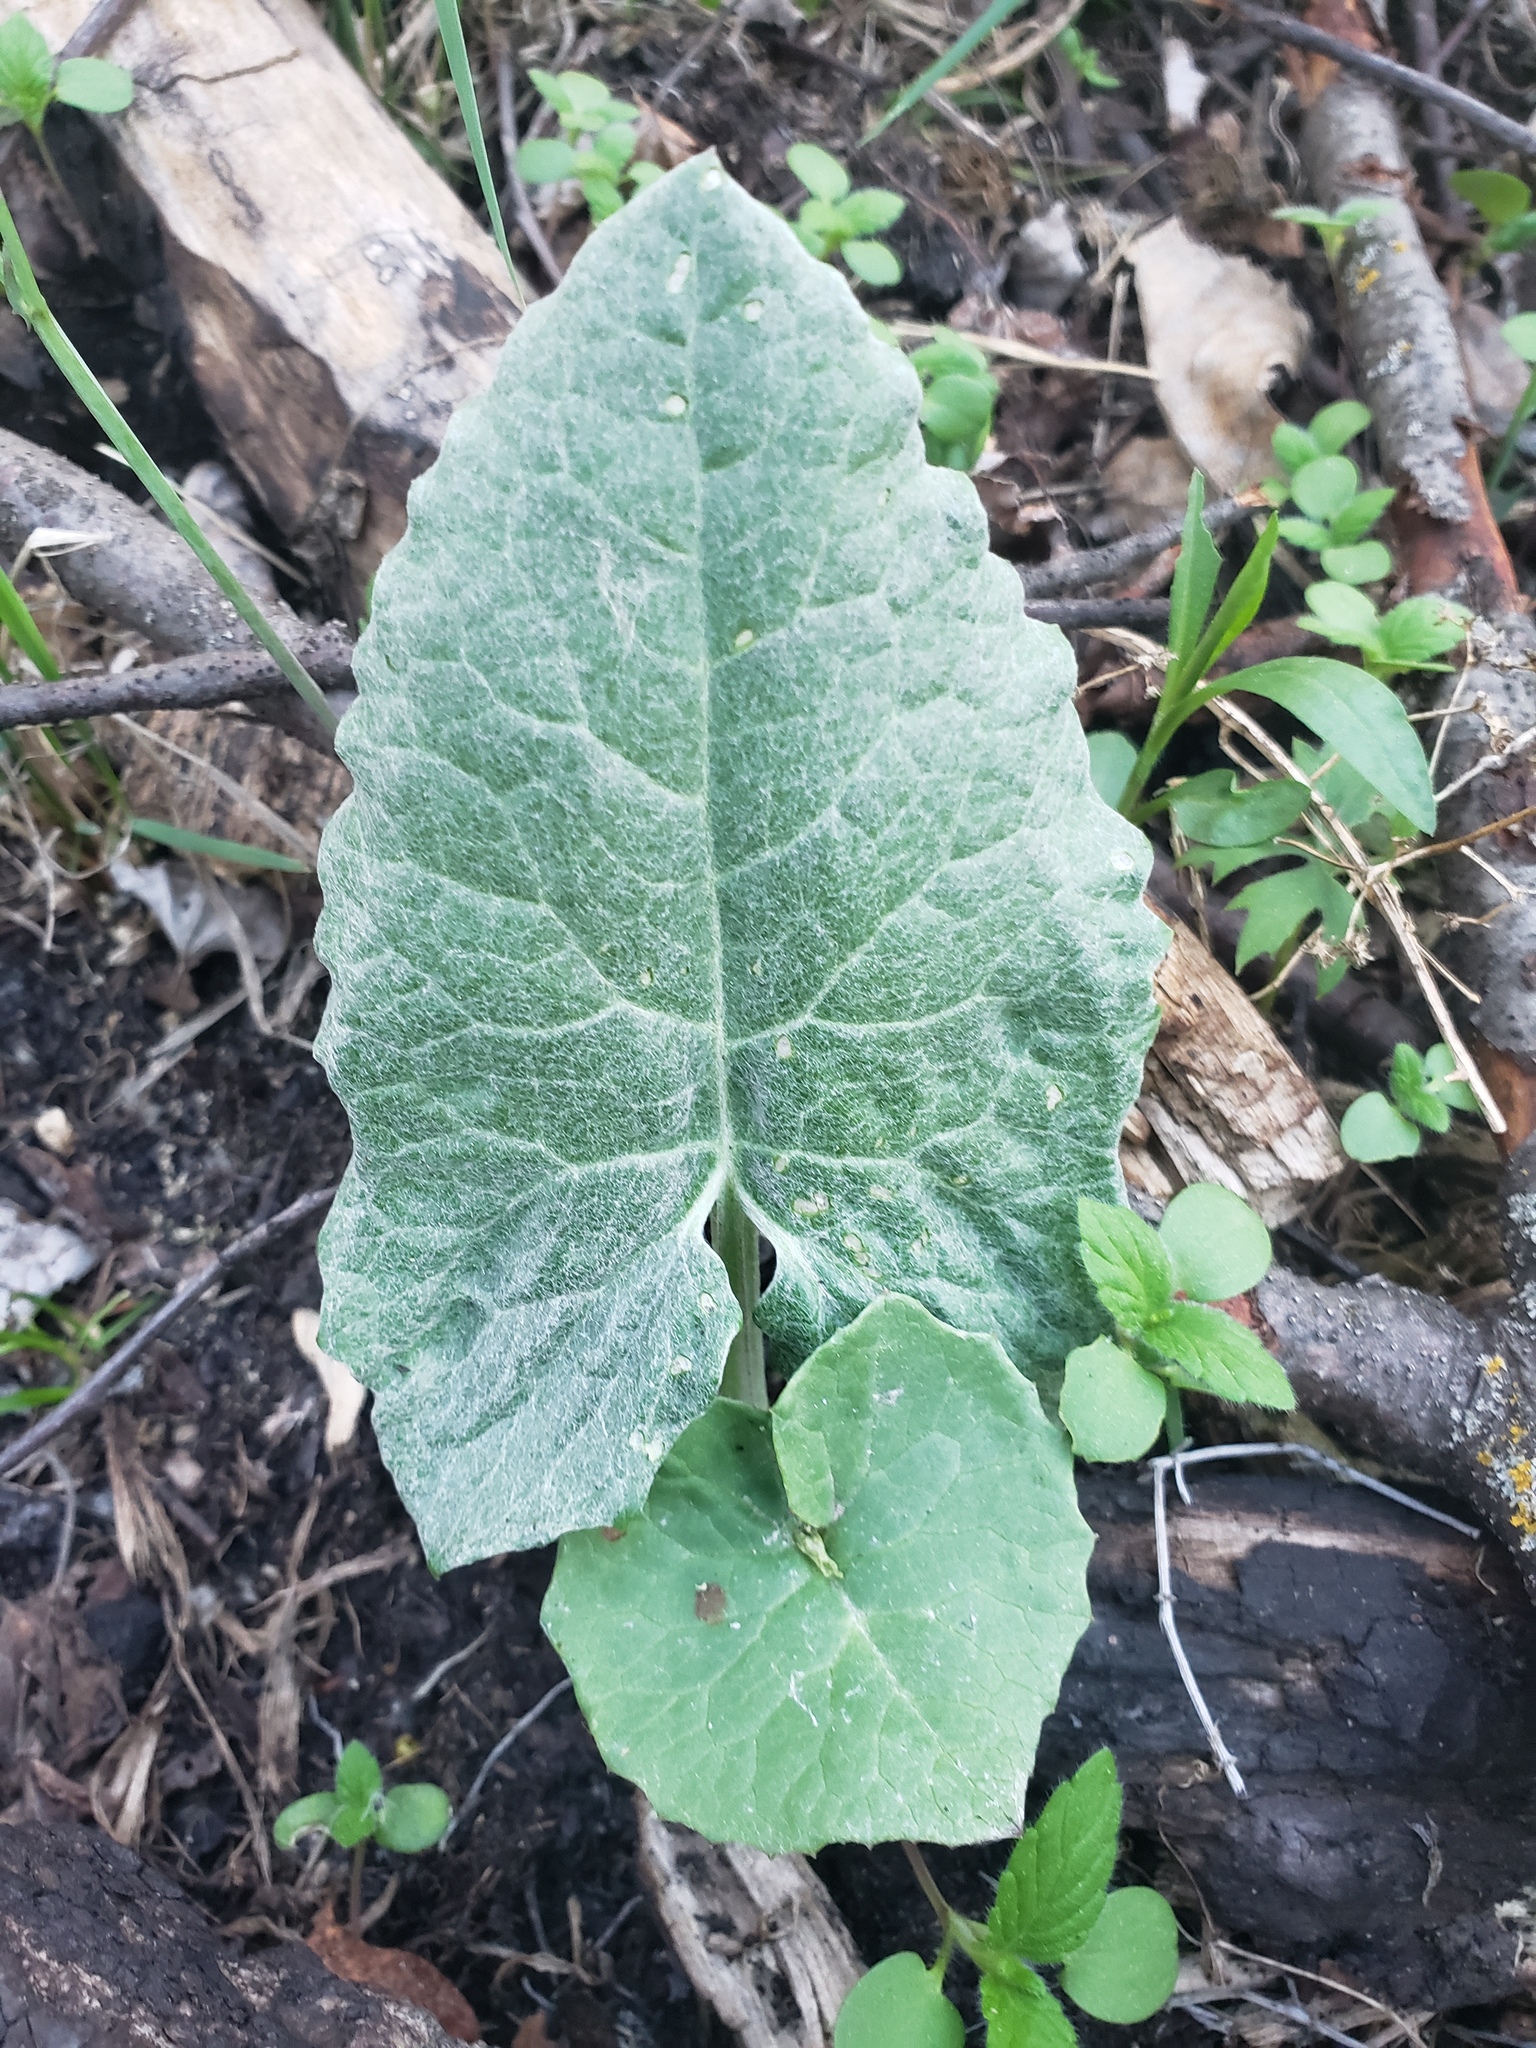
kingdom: Plantae
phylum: Tracheophyta
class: Magnoliopsida
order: Asterales
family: Asteraceae
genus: Petasites
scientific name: Petasites frigidus
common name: Arctic butterbur
